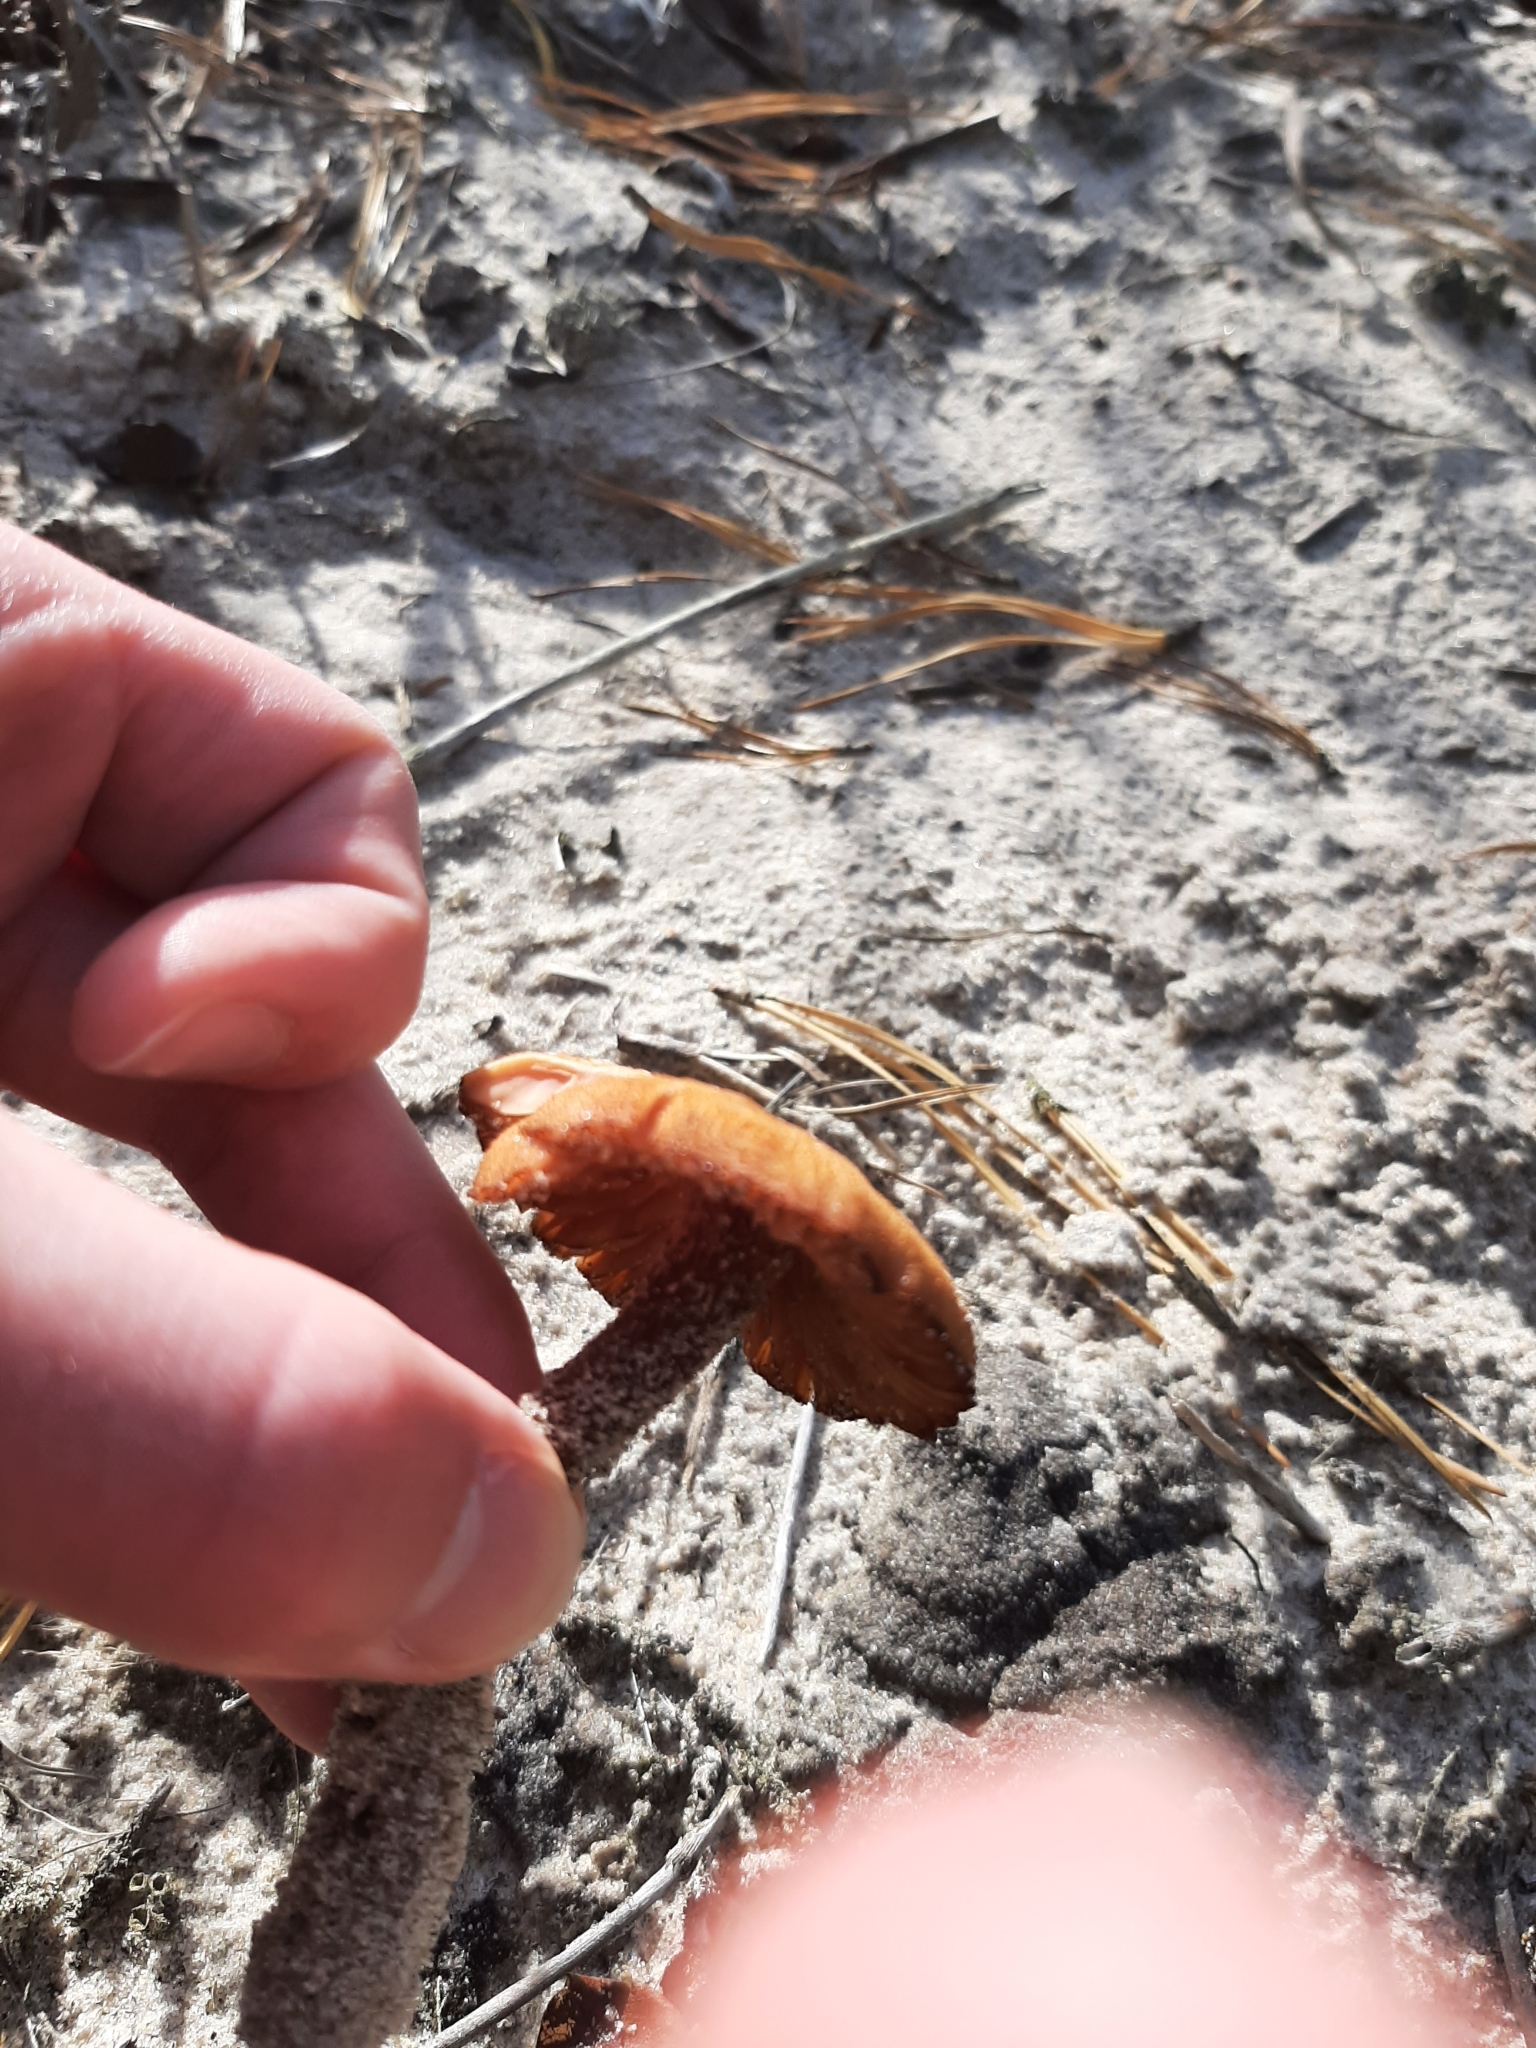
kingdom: Fungi
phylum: Basidiomycota
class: Agaricomycetes
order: Agaricales
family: Hydnangiaceae
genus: Laccaria
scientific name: Laccaria trullissata
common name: Sandy laccaria
